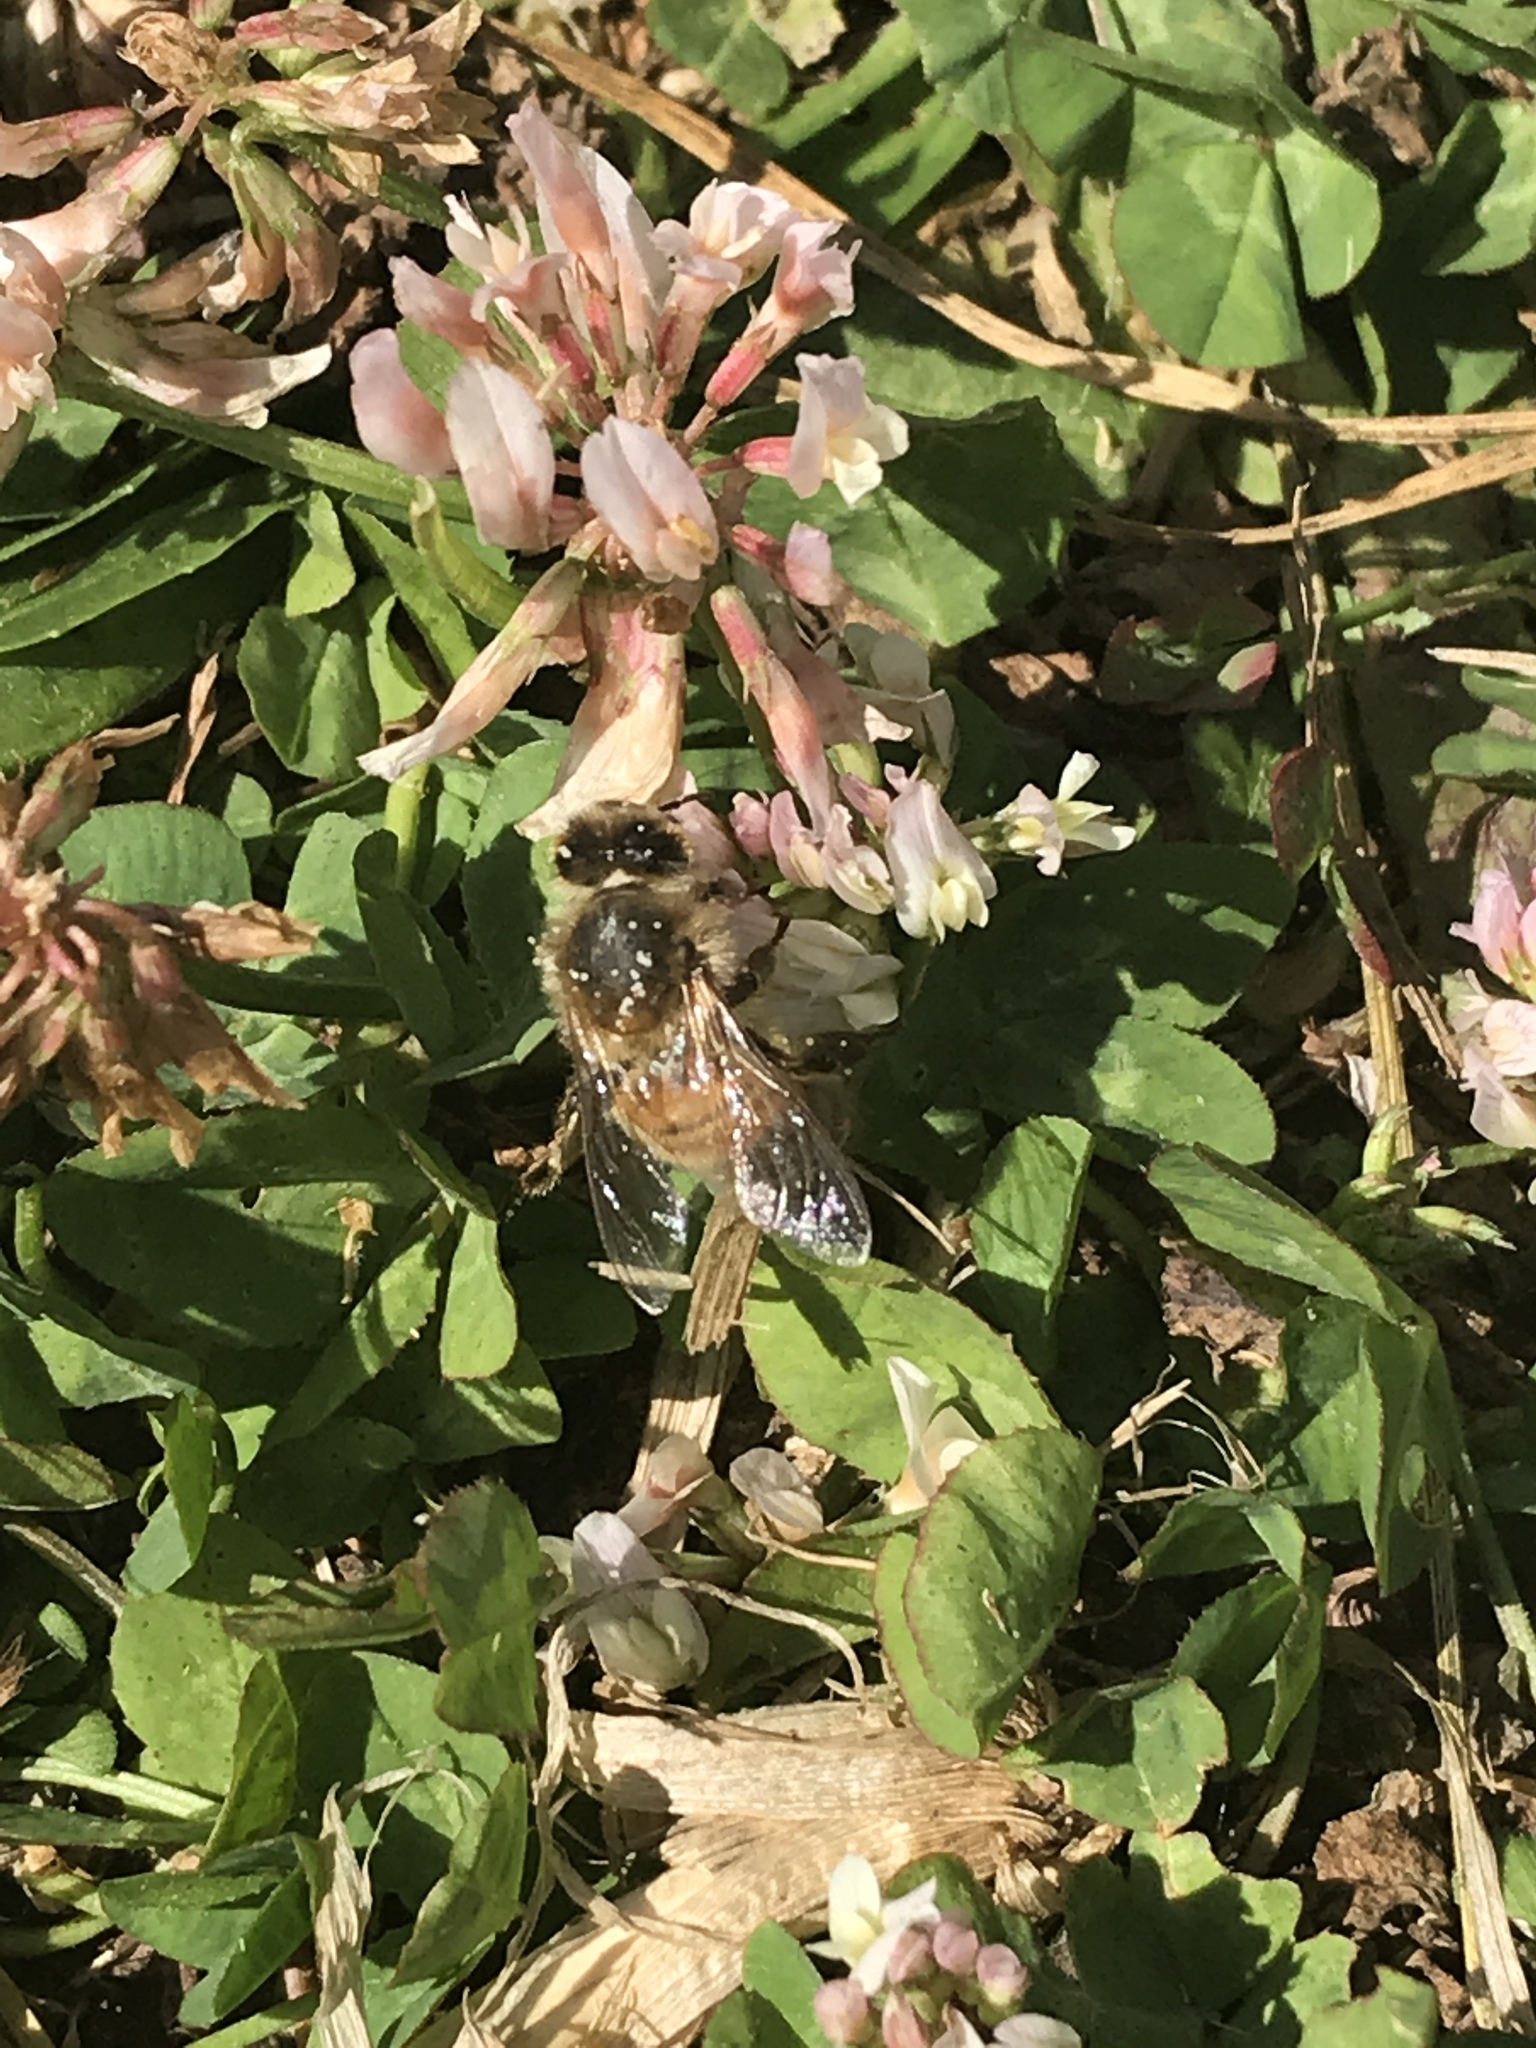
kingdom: Animalia
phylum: Arthropoda
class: Insecta
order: Hymenoptera
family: Apidae
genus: Apis
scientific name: Apis mellifera
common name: Honey bee
